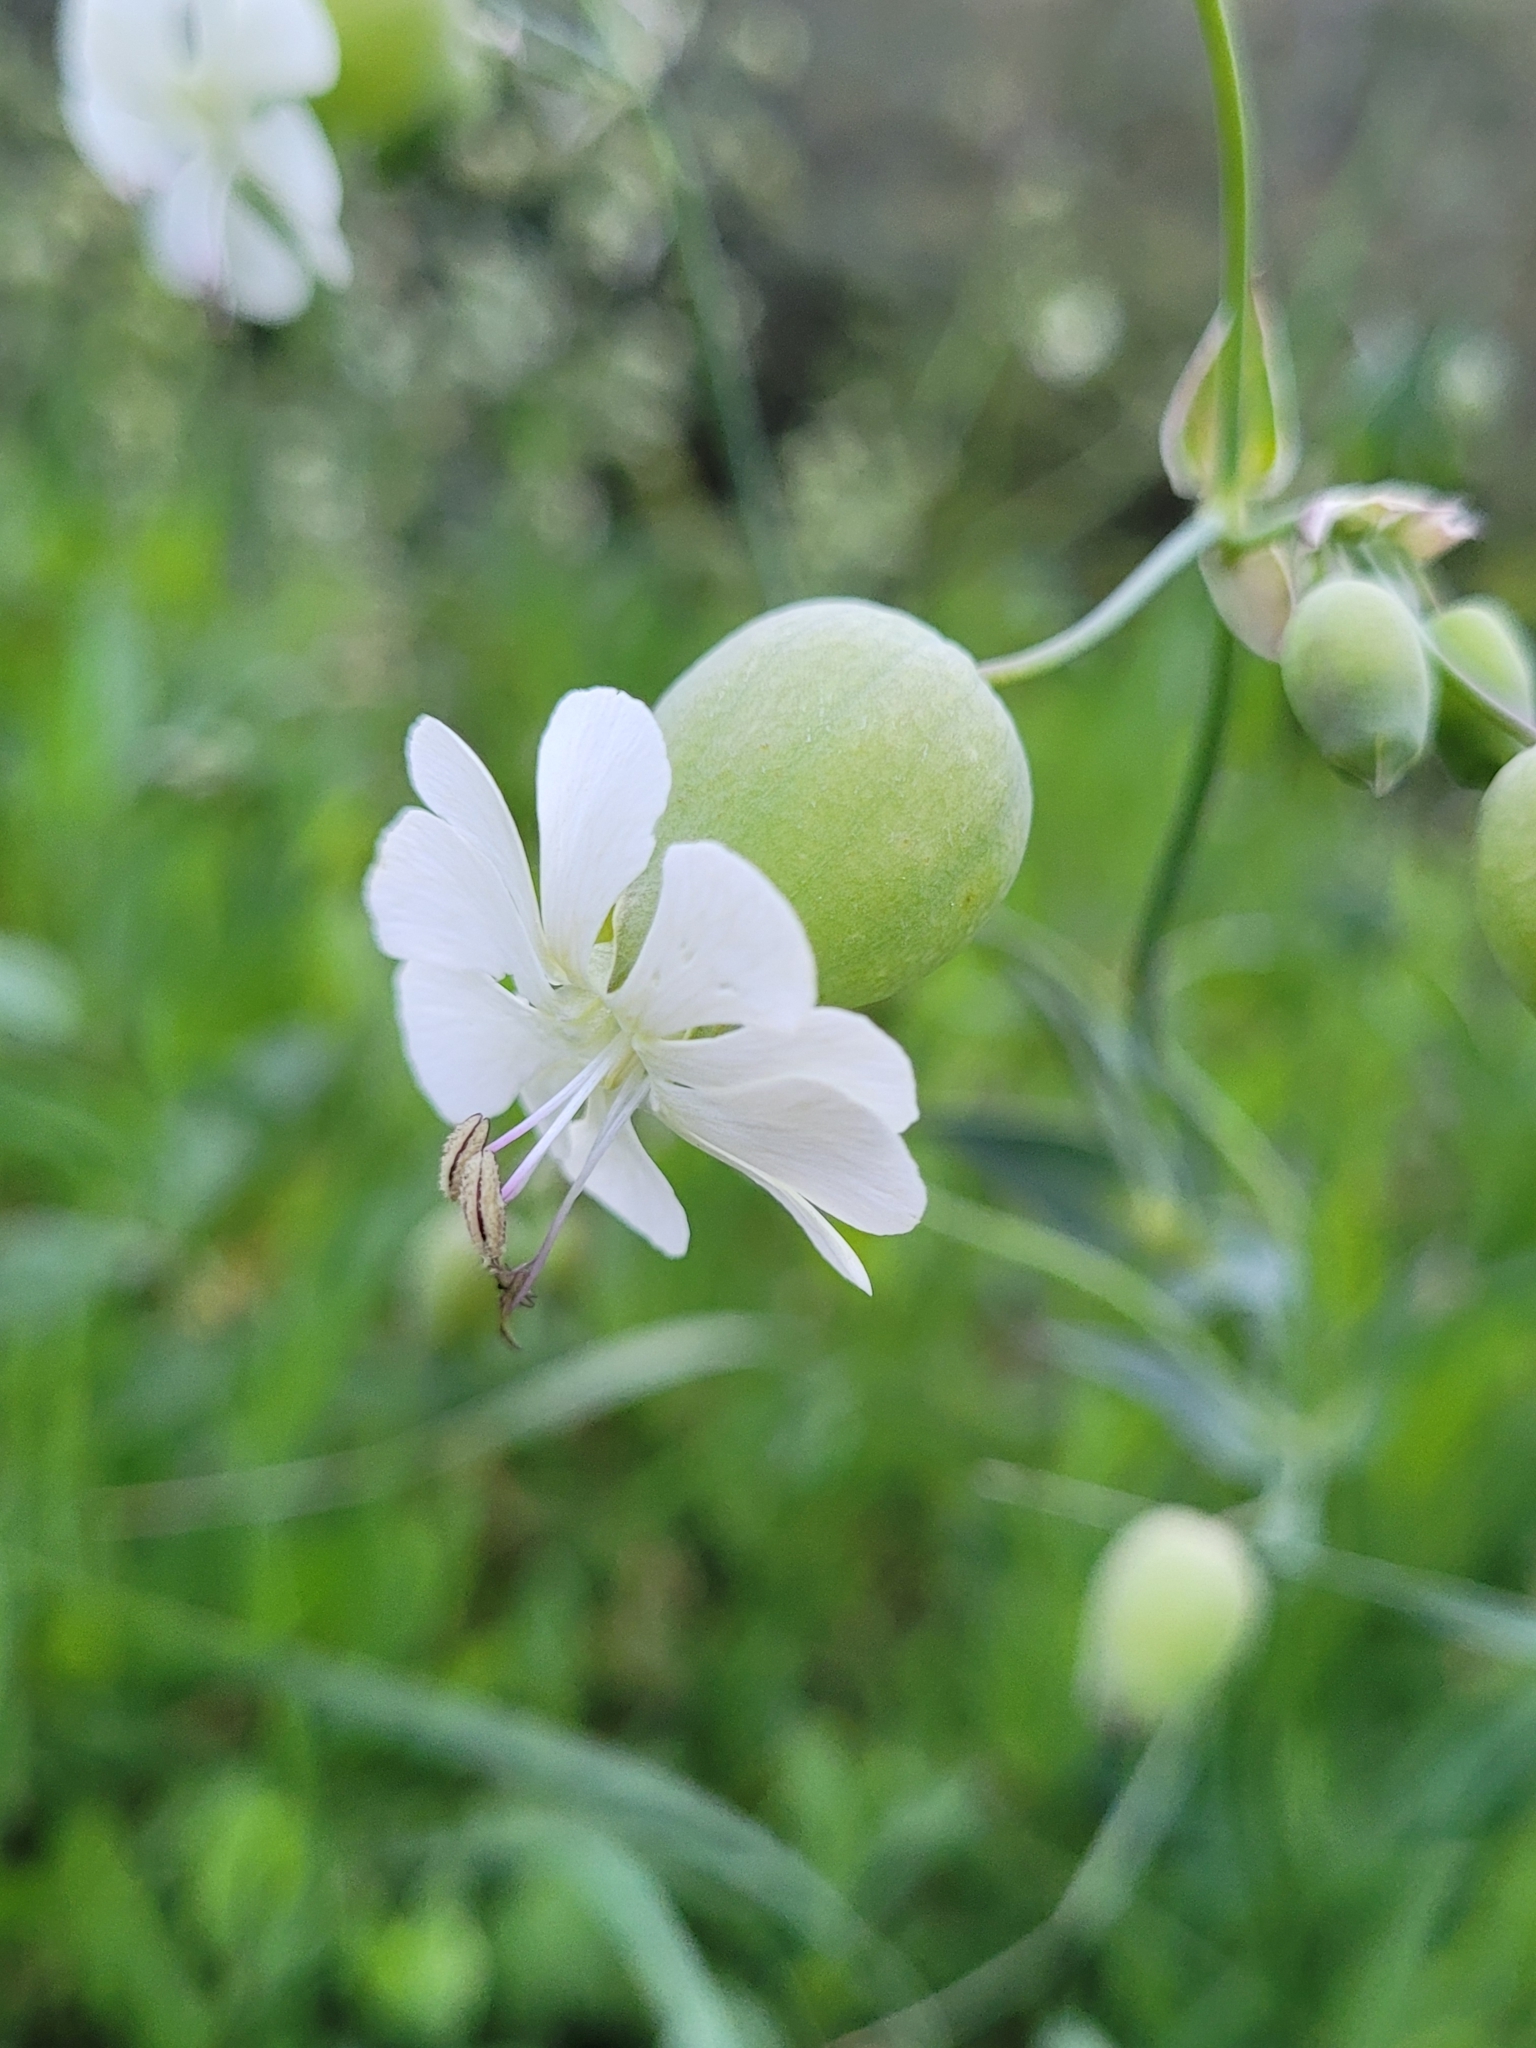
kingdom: Plantae
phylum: Tracheophyta
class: Magnoliopsida
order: Caryophyllales
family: Caryophyllaceae
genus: Silene
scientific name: Silene vulgaris
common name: Bladder campion
